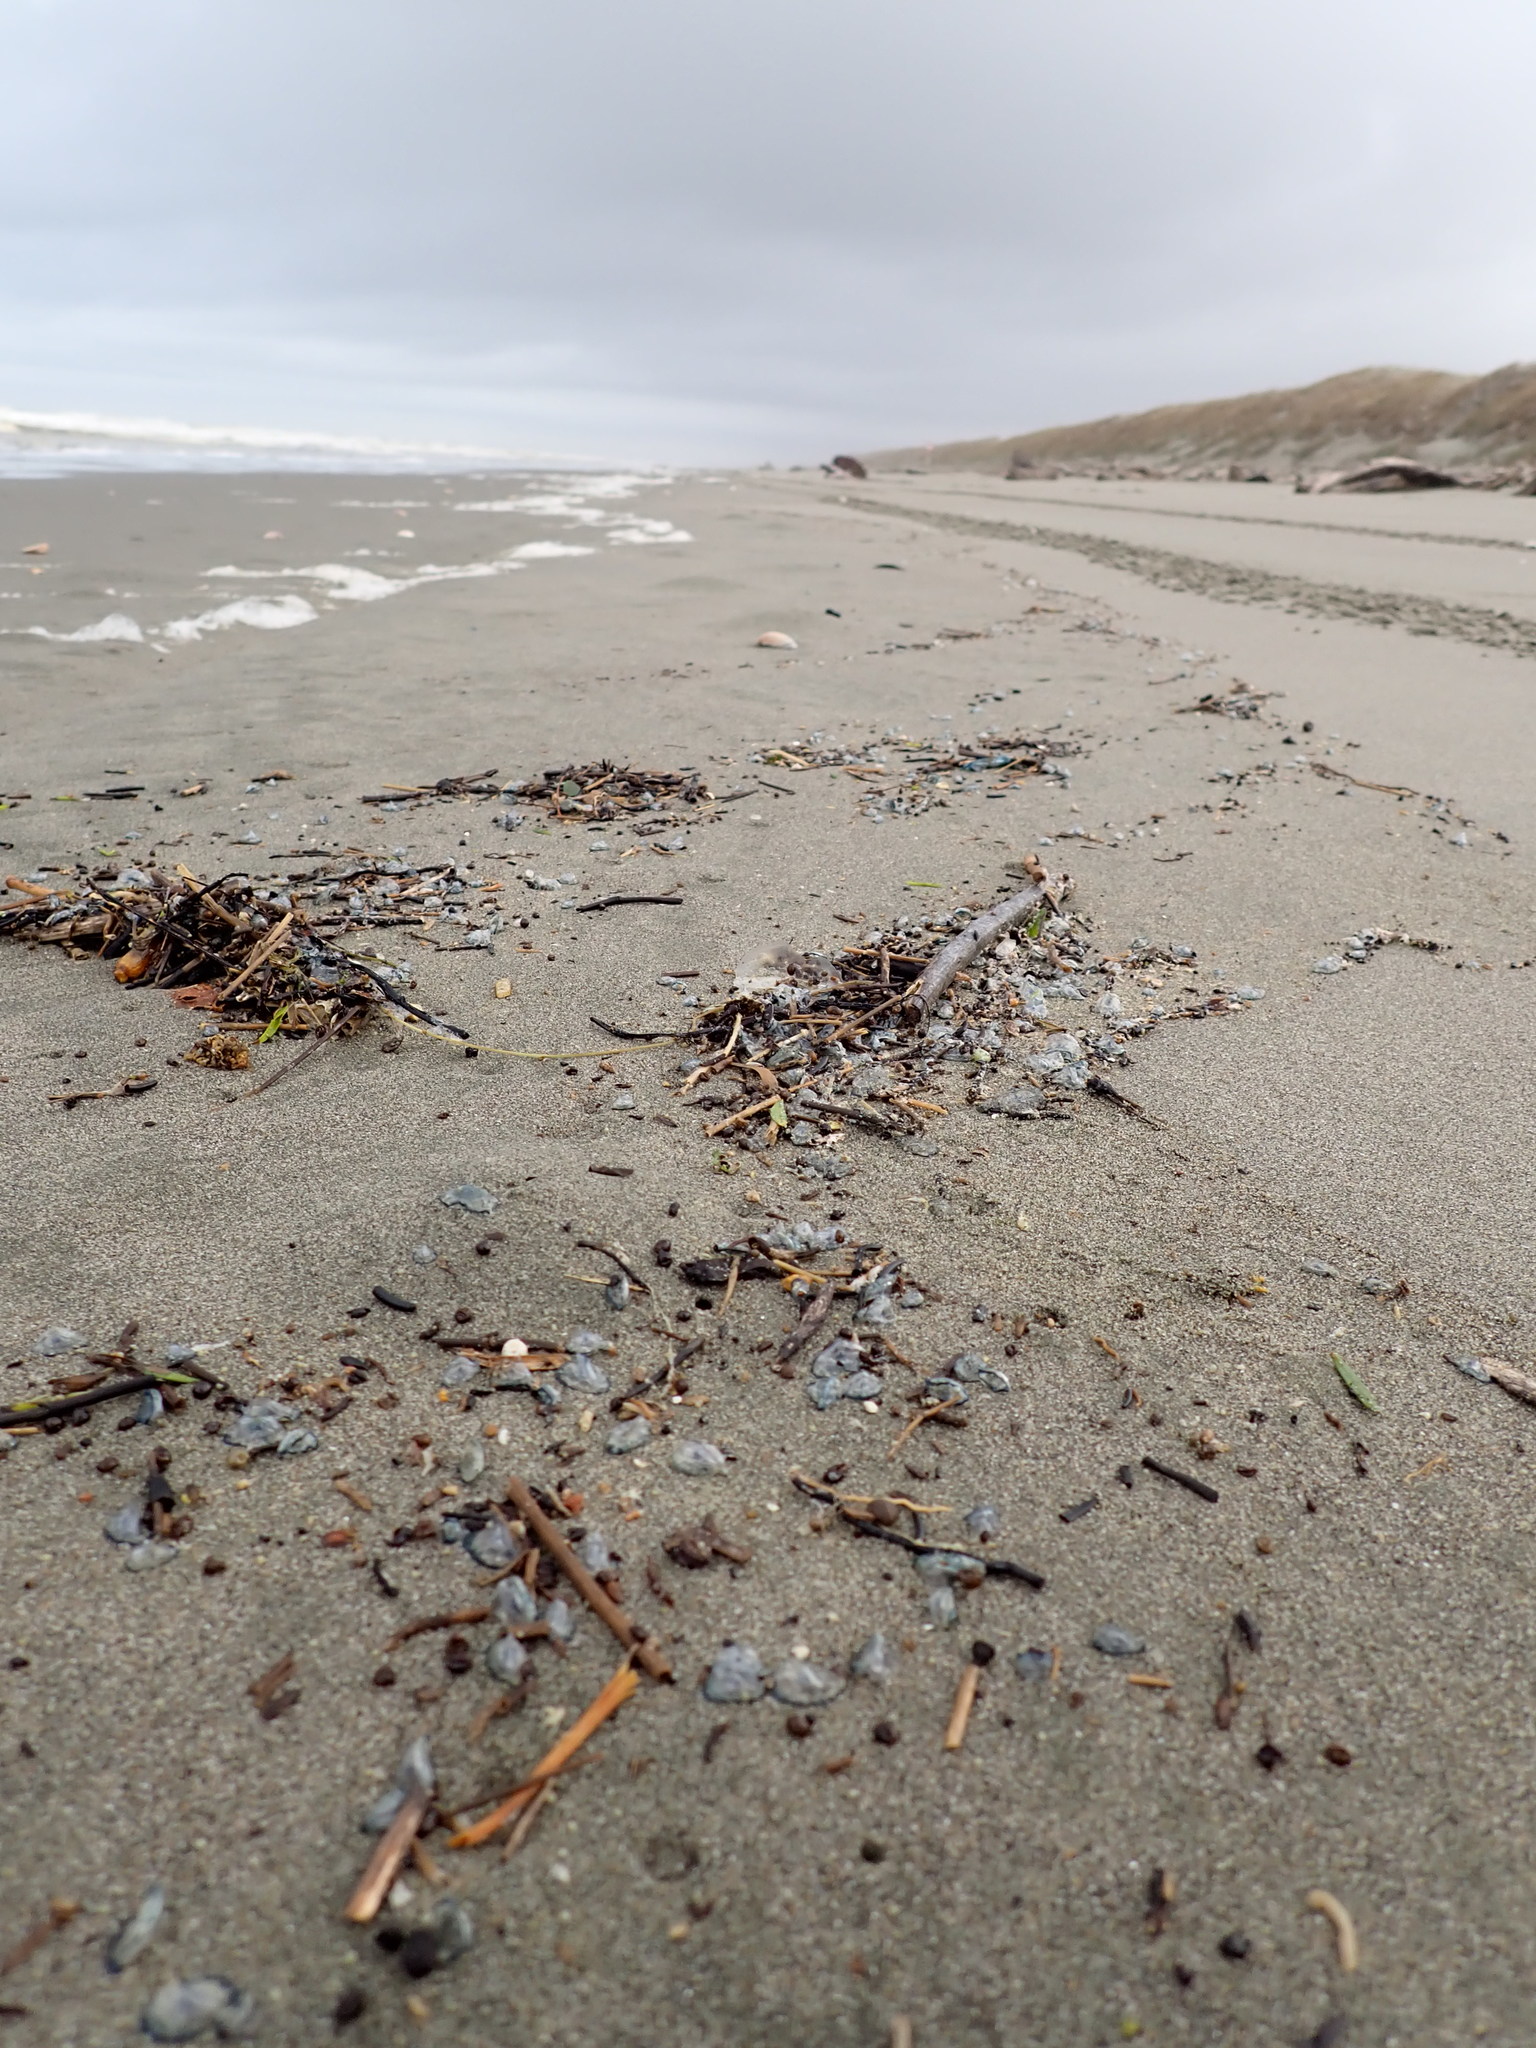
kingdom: Animalia
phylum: Cnidaria
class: Hydrozoa
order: Anthoathecata
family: Porpitidae
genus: Velella
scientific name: Velella velella
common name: By-the-wind-sailor
